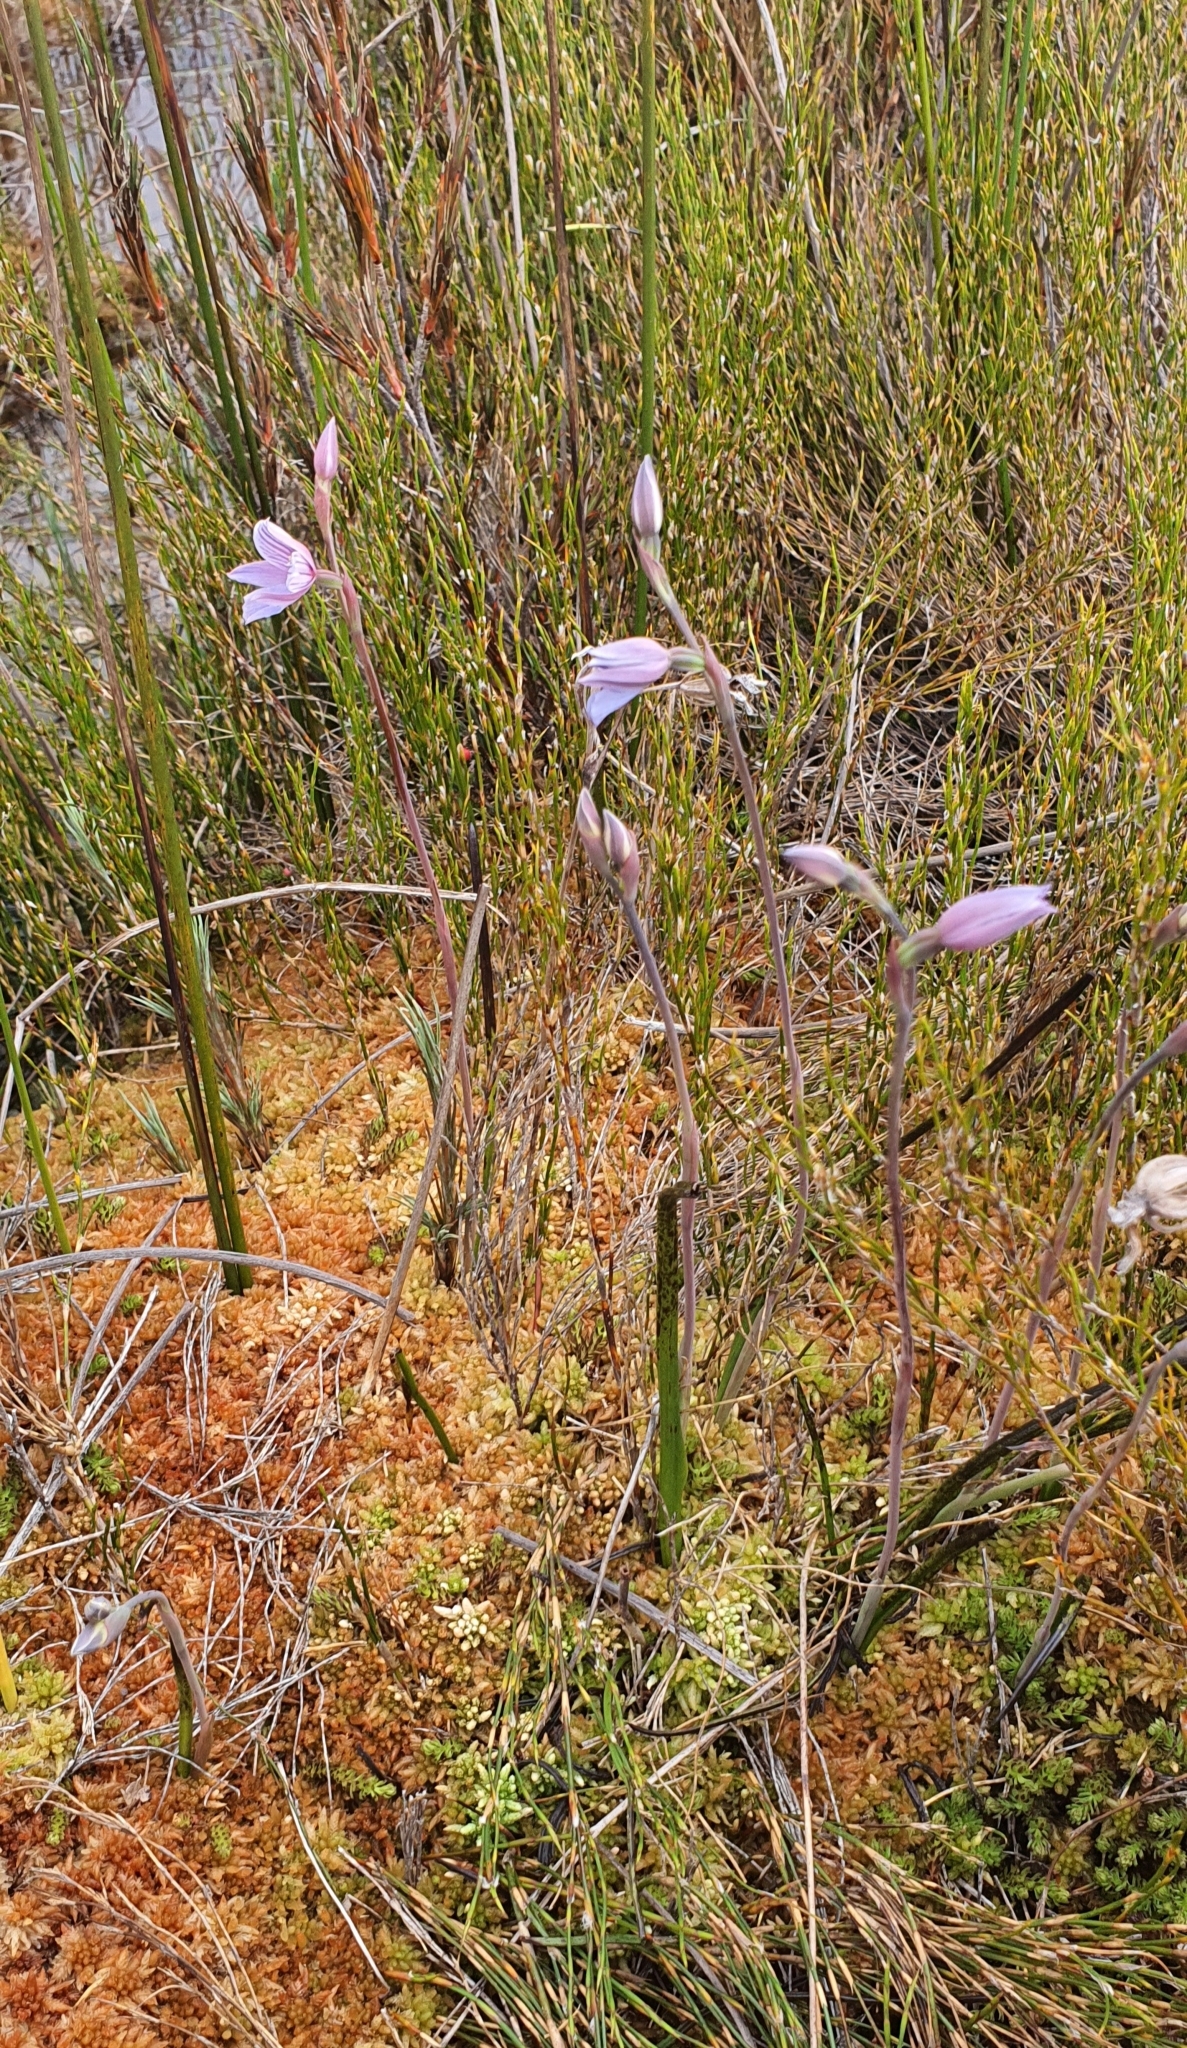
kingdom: Plantae
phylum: Tracheophyta
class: Liliopsida
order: Asparagales
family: Orchidaceae
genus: Thelymitra
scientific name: Thelymitra cyanea
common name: Blue sun-orchid
